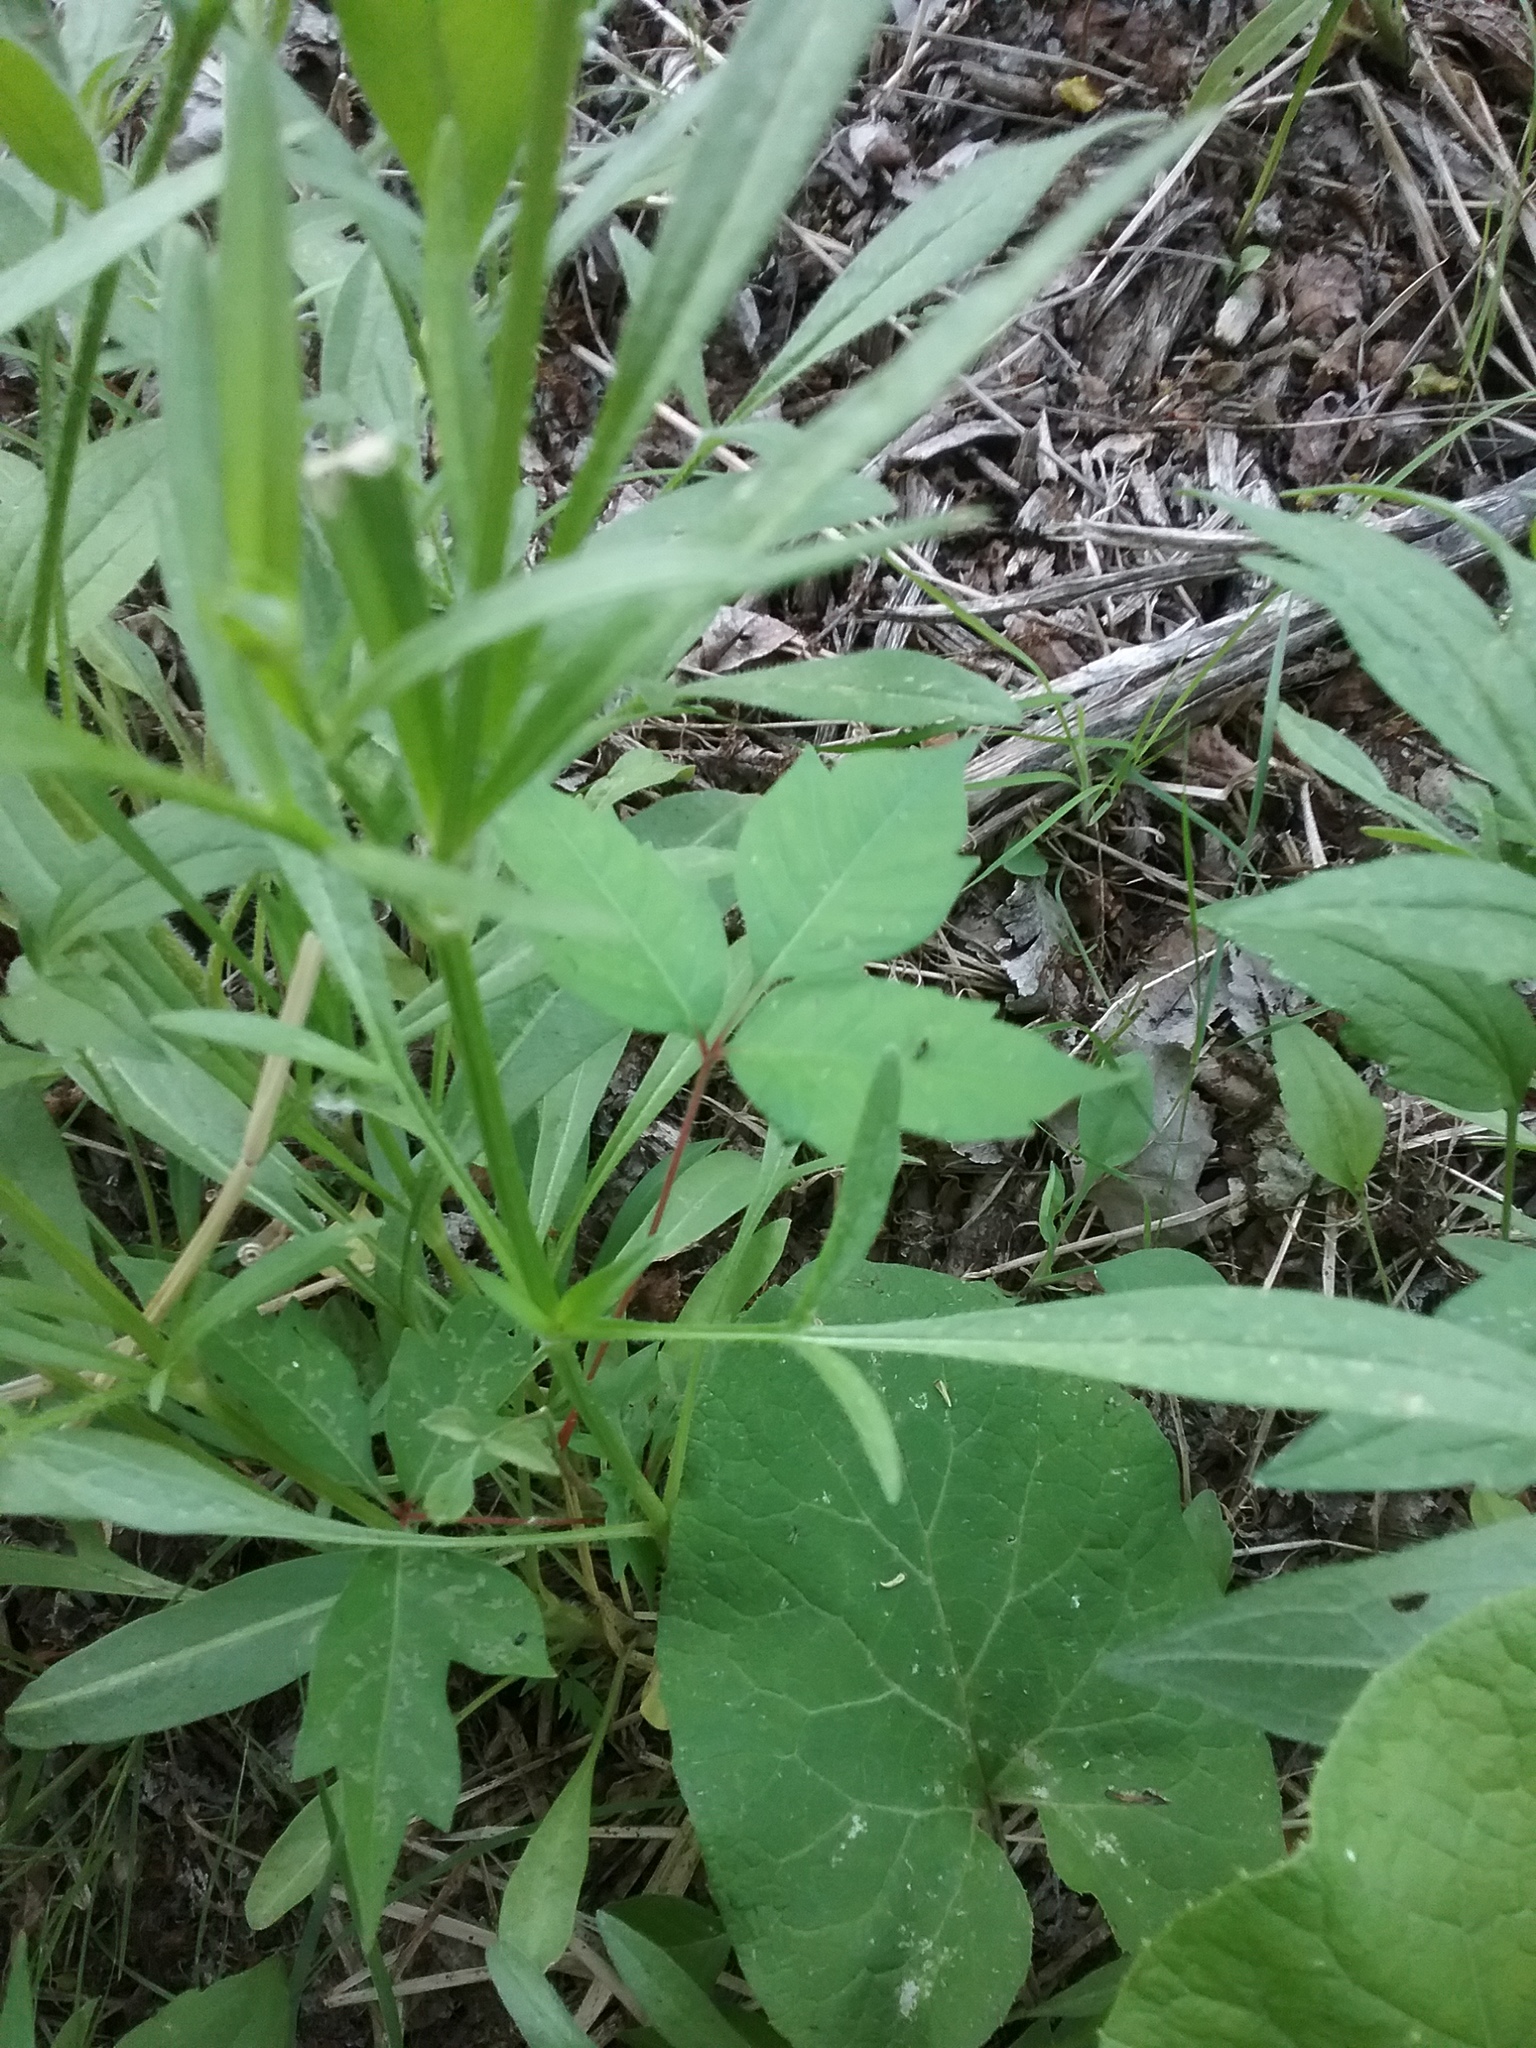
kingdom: Plantae
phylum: Tracheophyta
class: Magnoliopsida
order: Asterales
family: Asteraceae
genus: Coreopsis
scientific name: Coreopsis lanceolata
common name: Garden coreopsis
